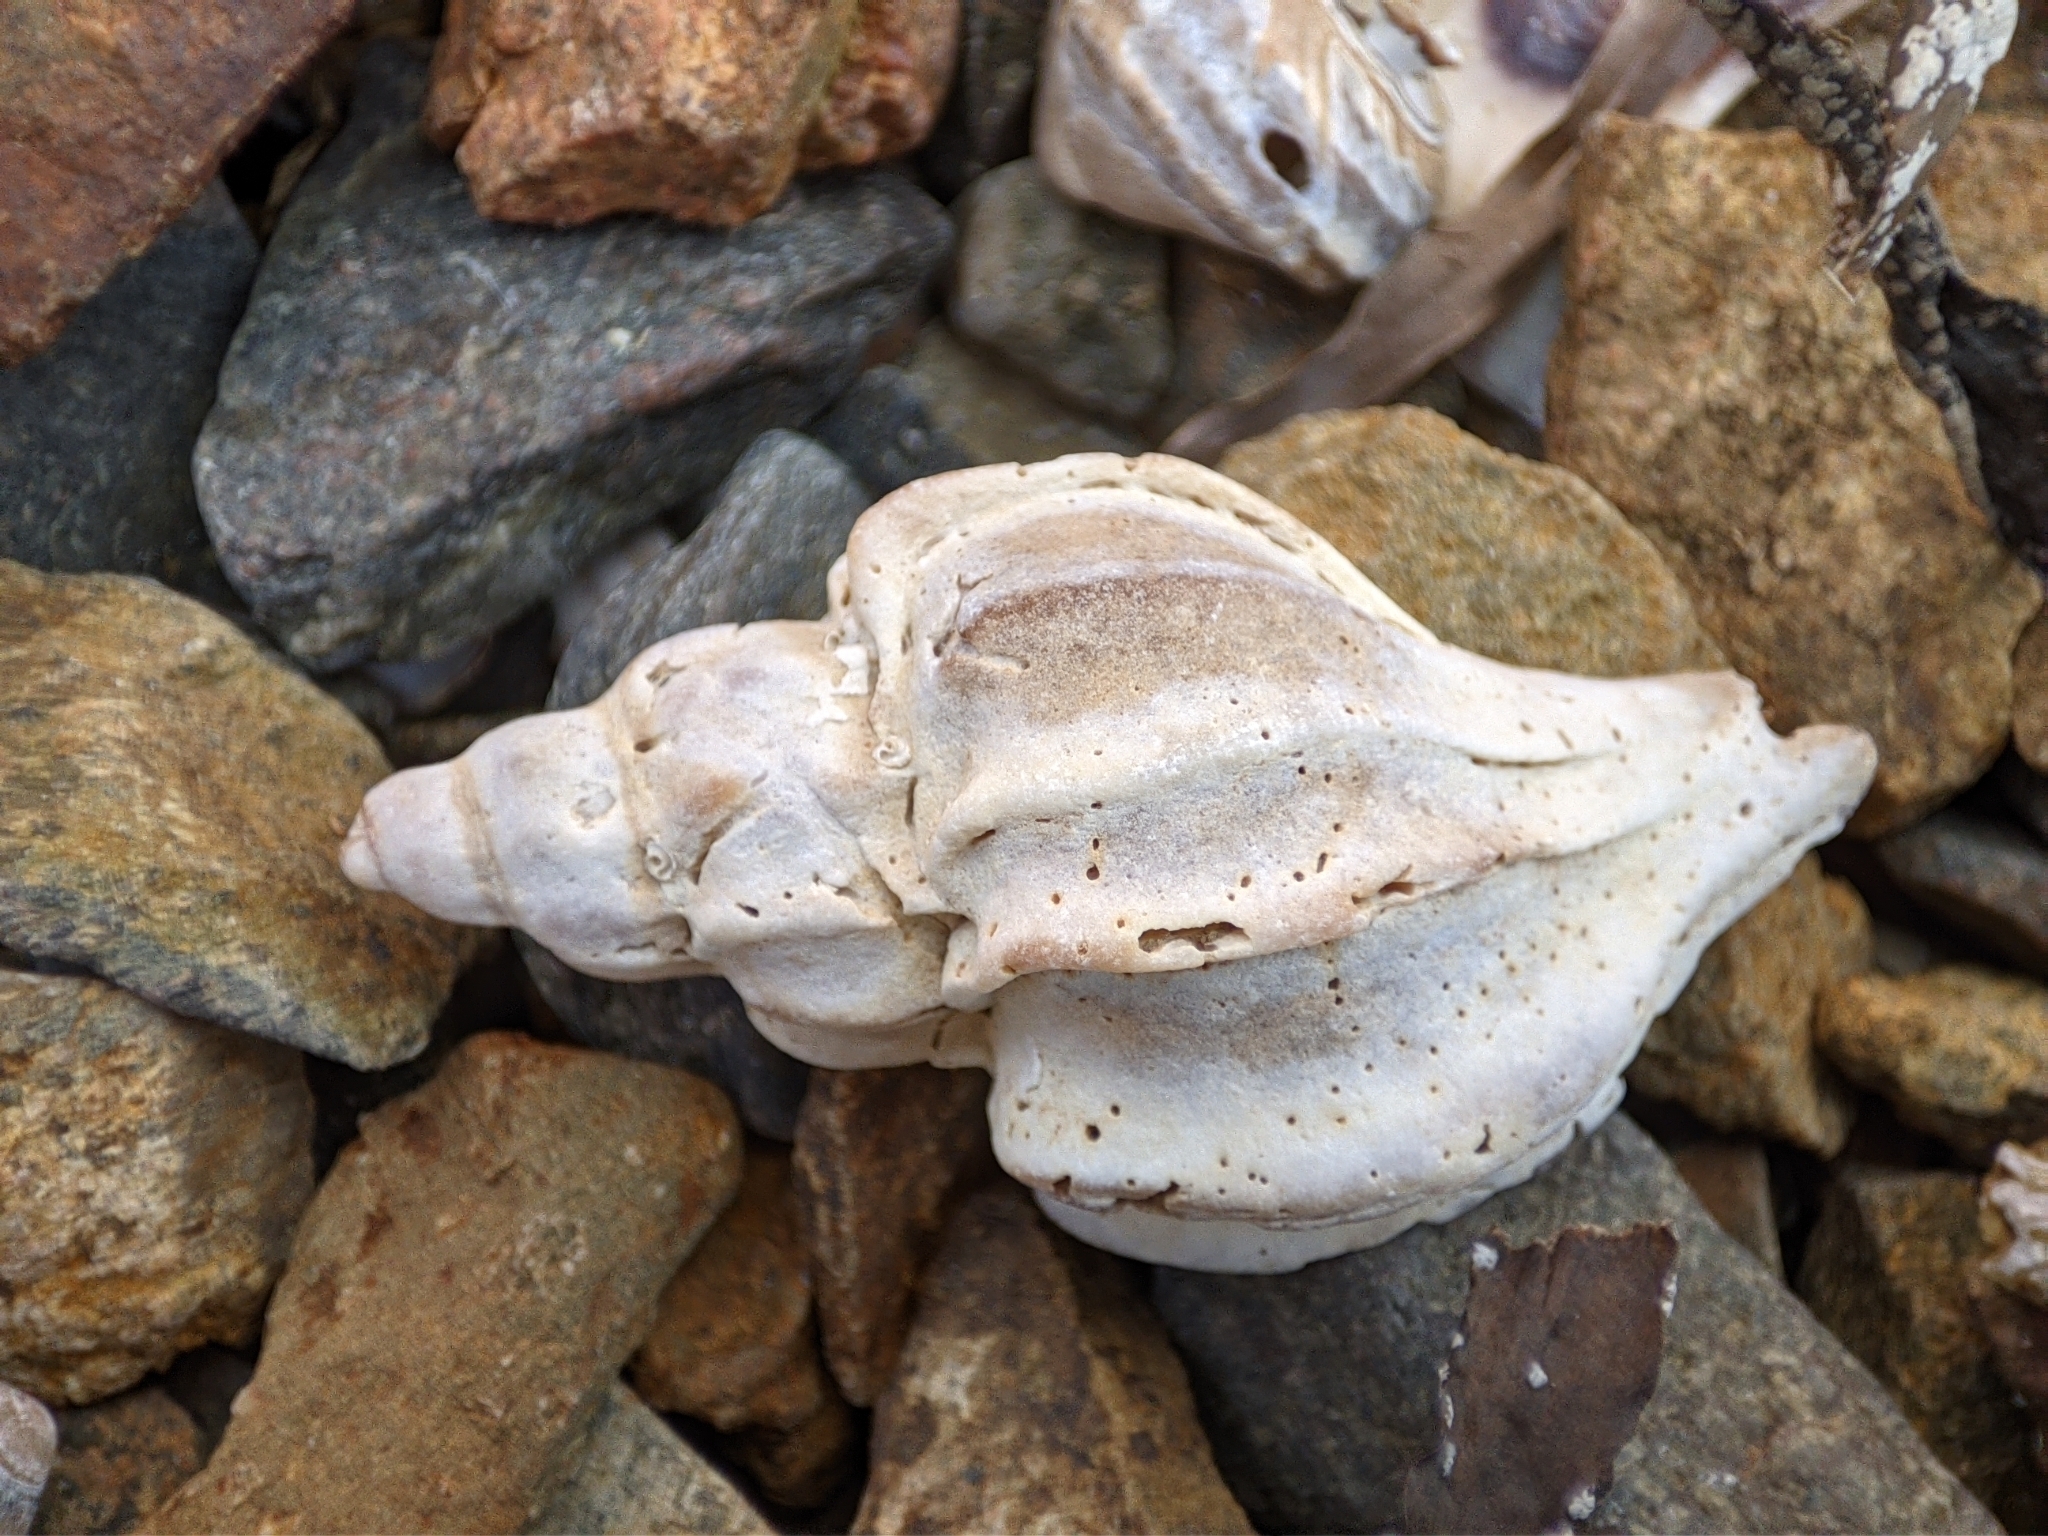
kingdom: Animalia
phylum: Mollusca
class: Gastropoda
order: Neogastropoda
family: Muricidae
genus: Boreotrophon
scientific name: Boreotrophon candelabrum
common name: Candelabrum trophon
